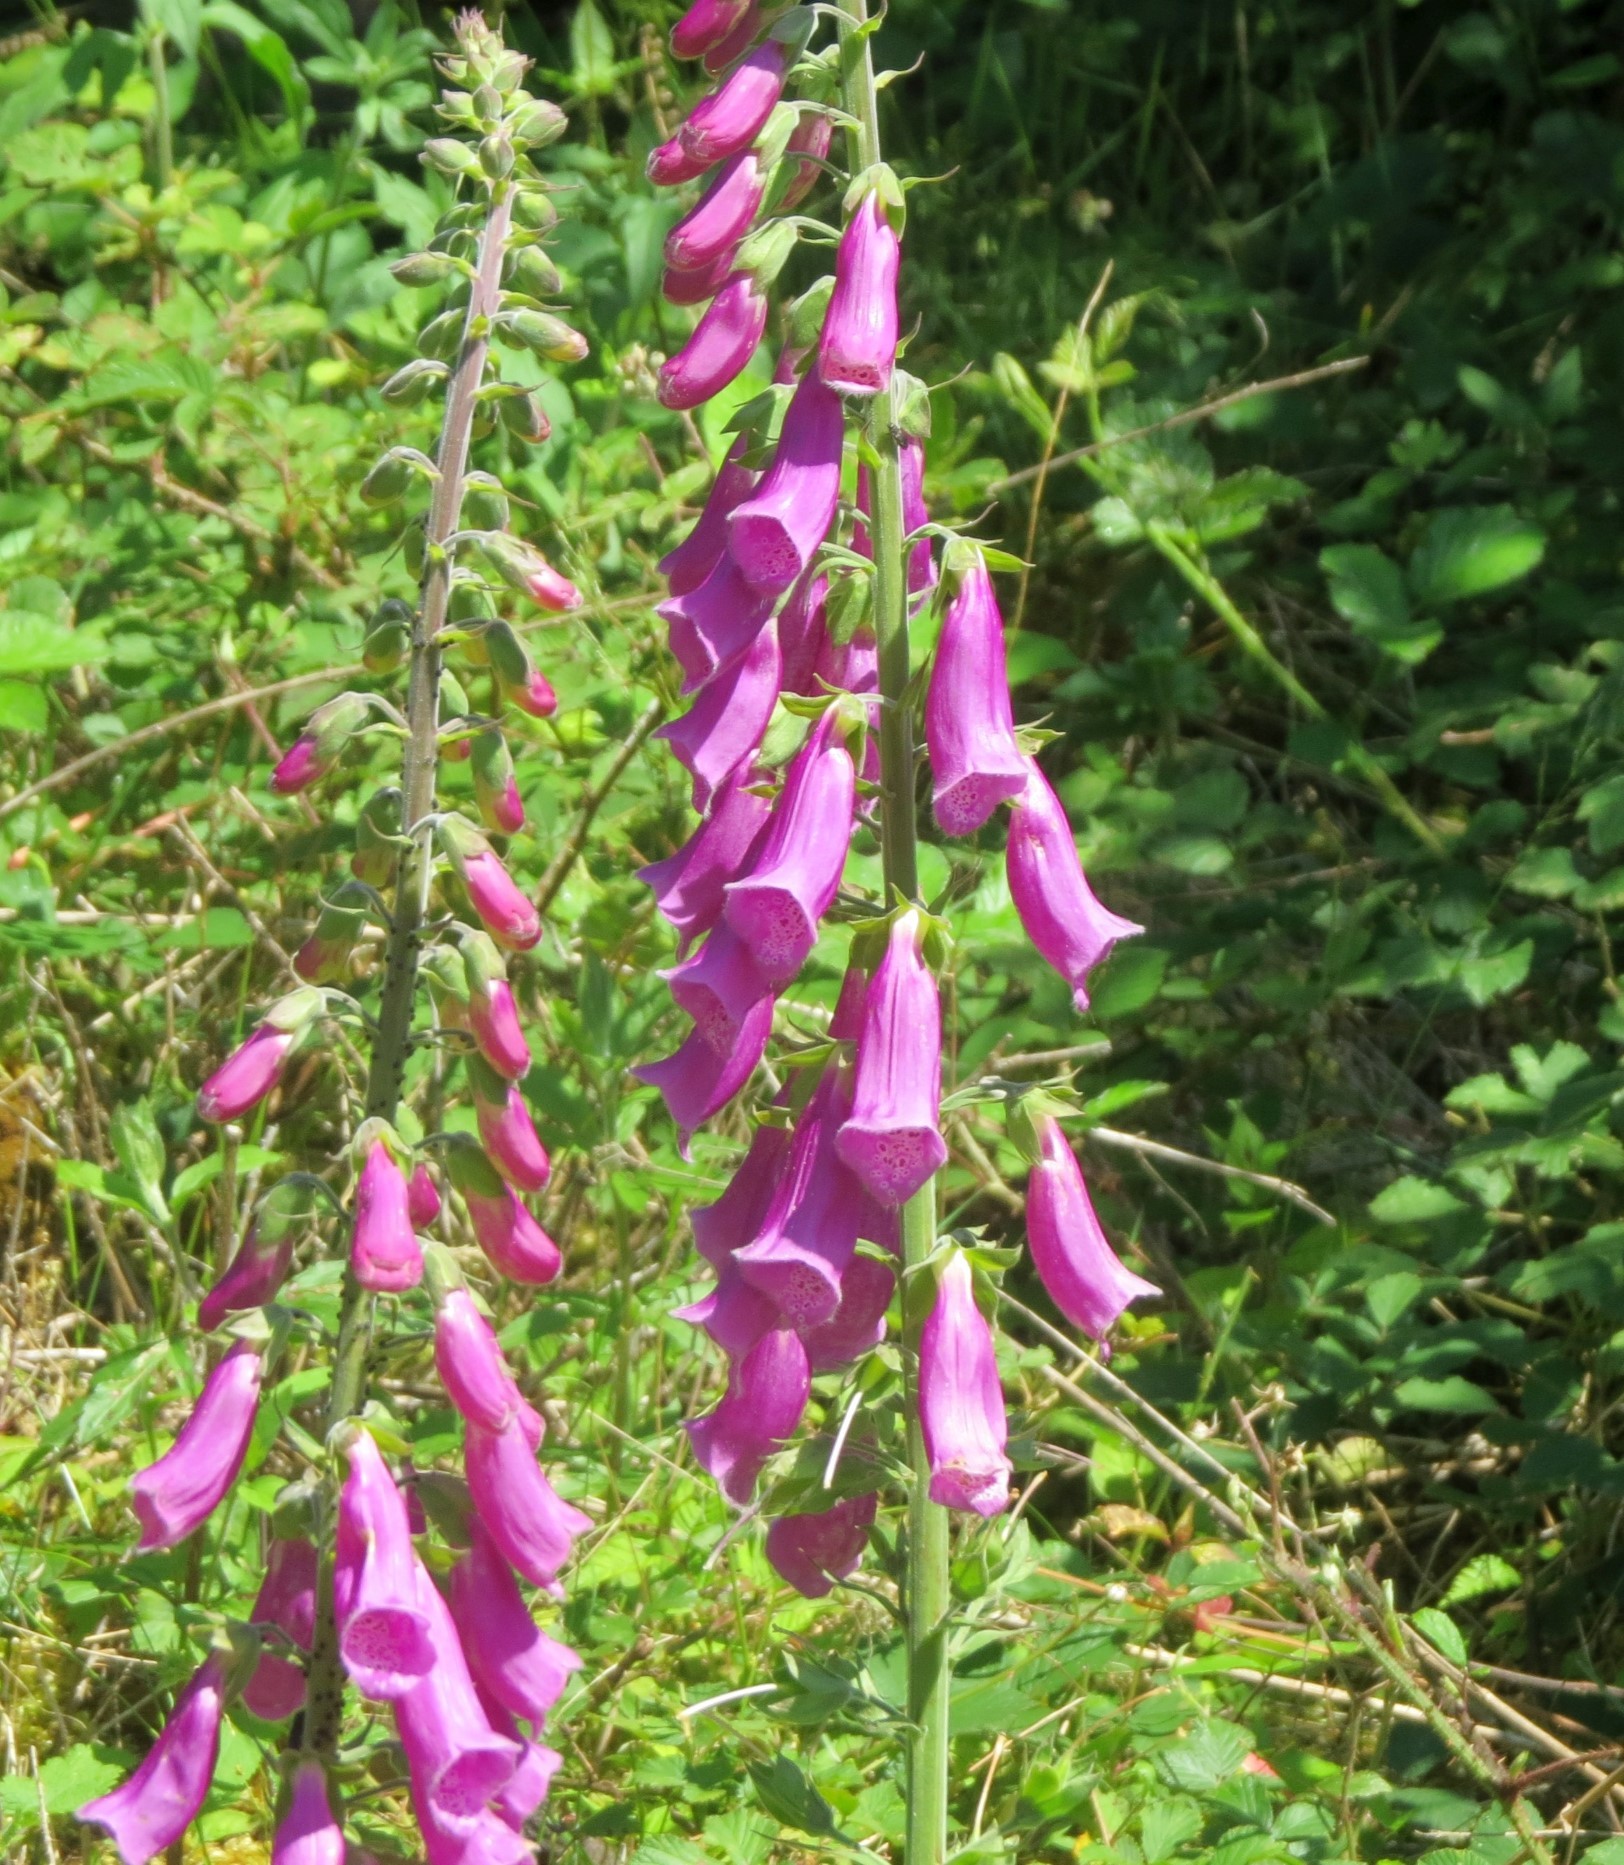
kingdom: Plantae
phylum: Tracheophyta
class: Magnoliopsida
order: Lamiales
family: Plantaginaceae
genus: Digitalis
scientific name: Digitalis purpurea
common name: Foxglove
